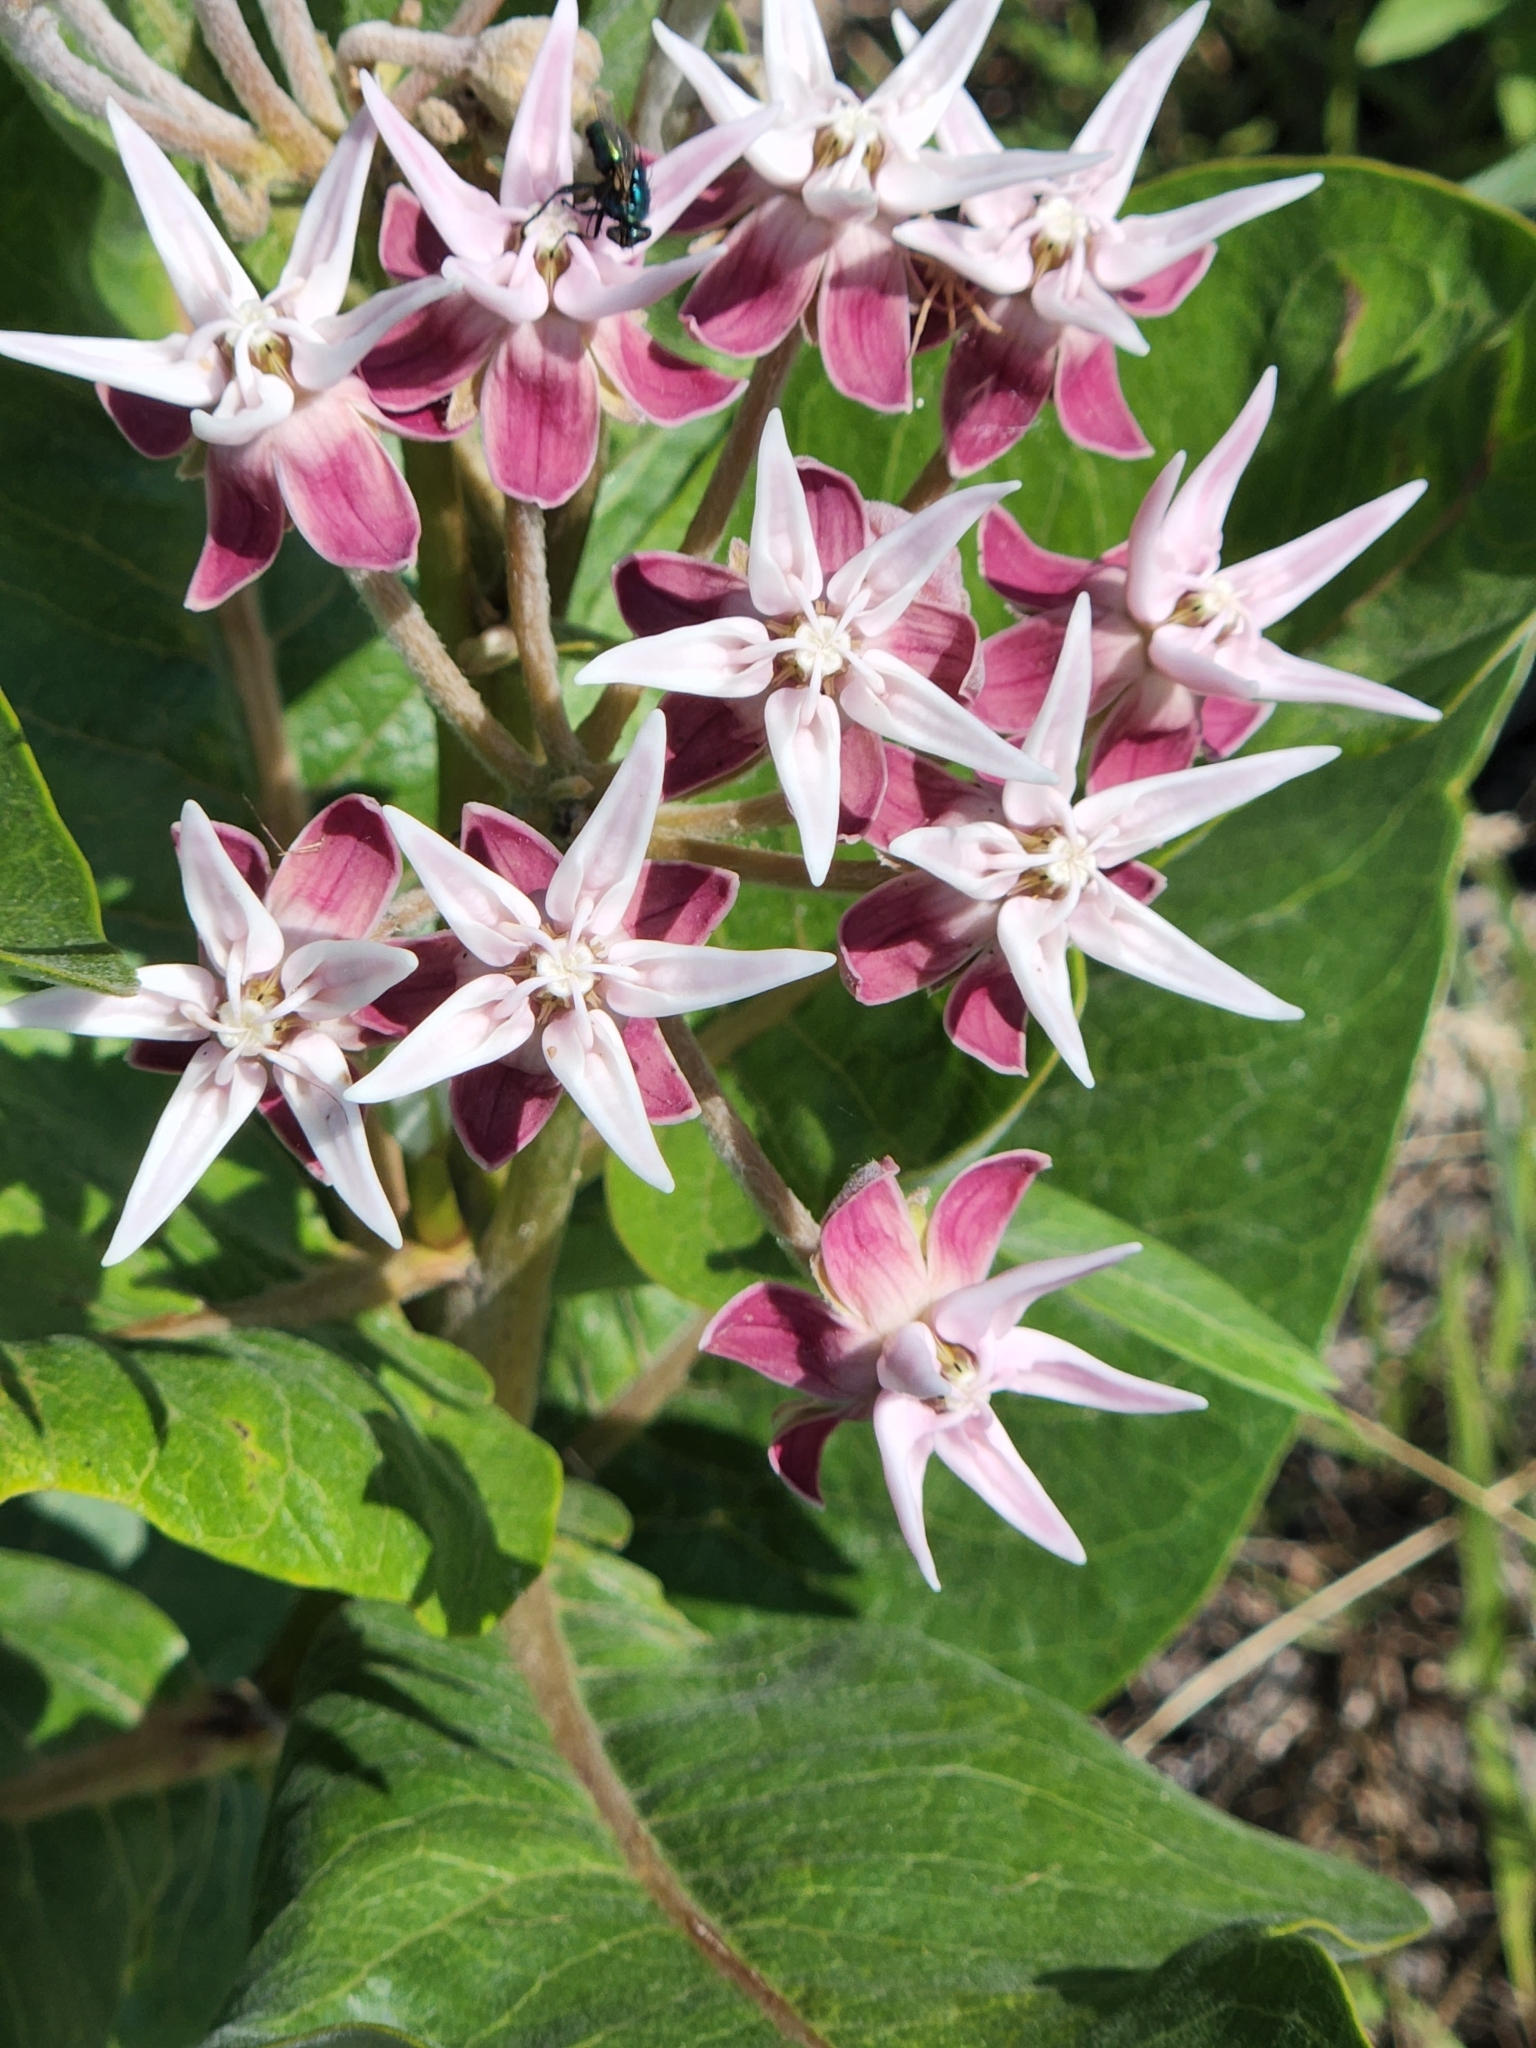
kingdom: Plantae
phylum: Tracheophyta
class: Magnoliopsida
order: Gentianales
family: Apocynaceae
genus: Asclepias
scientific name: Asclepias speciosa
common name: Showy milkweed
